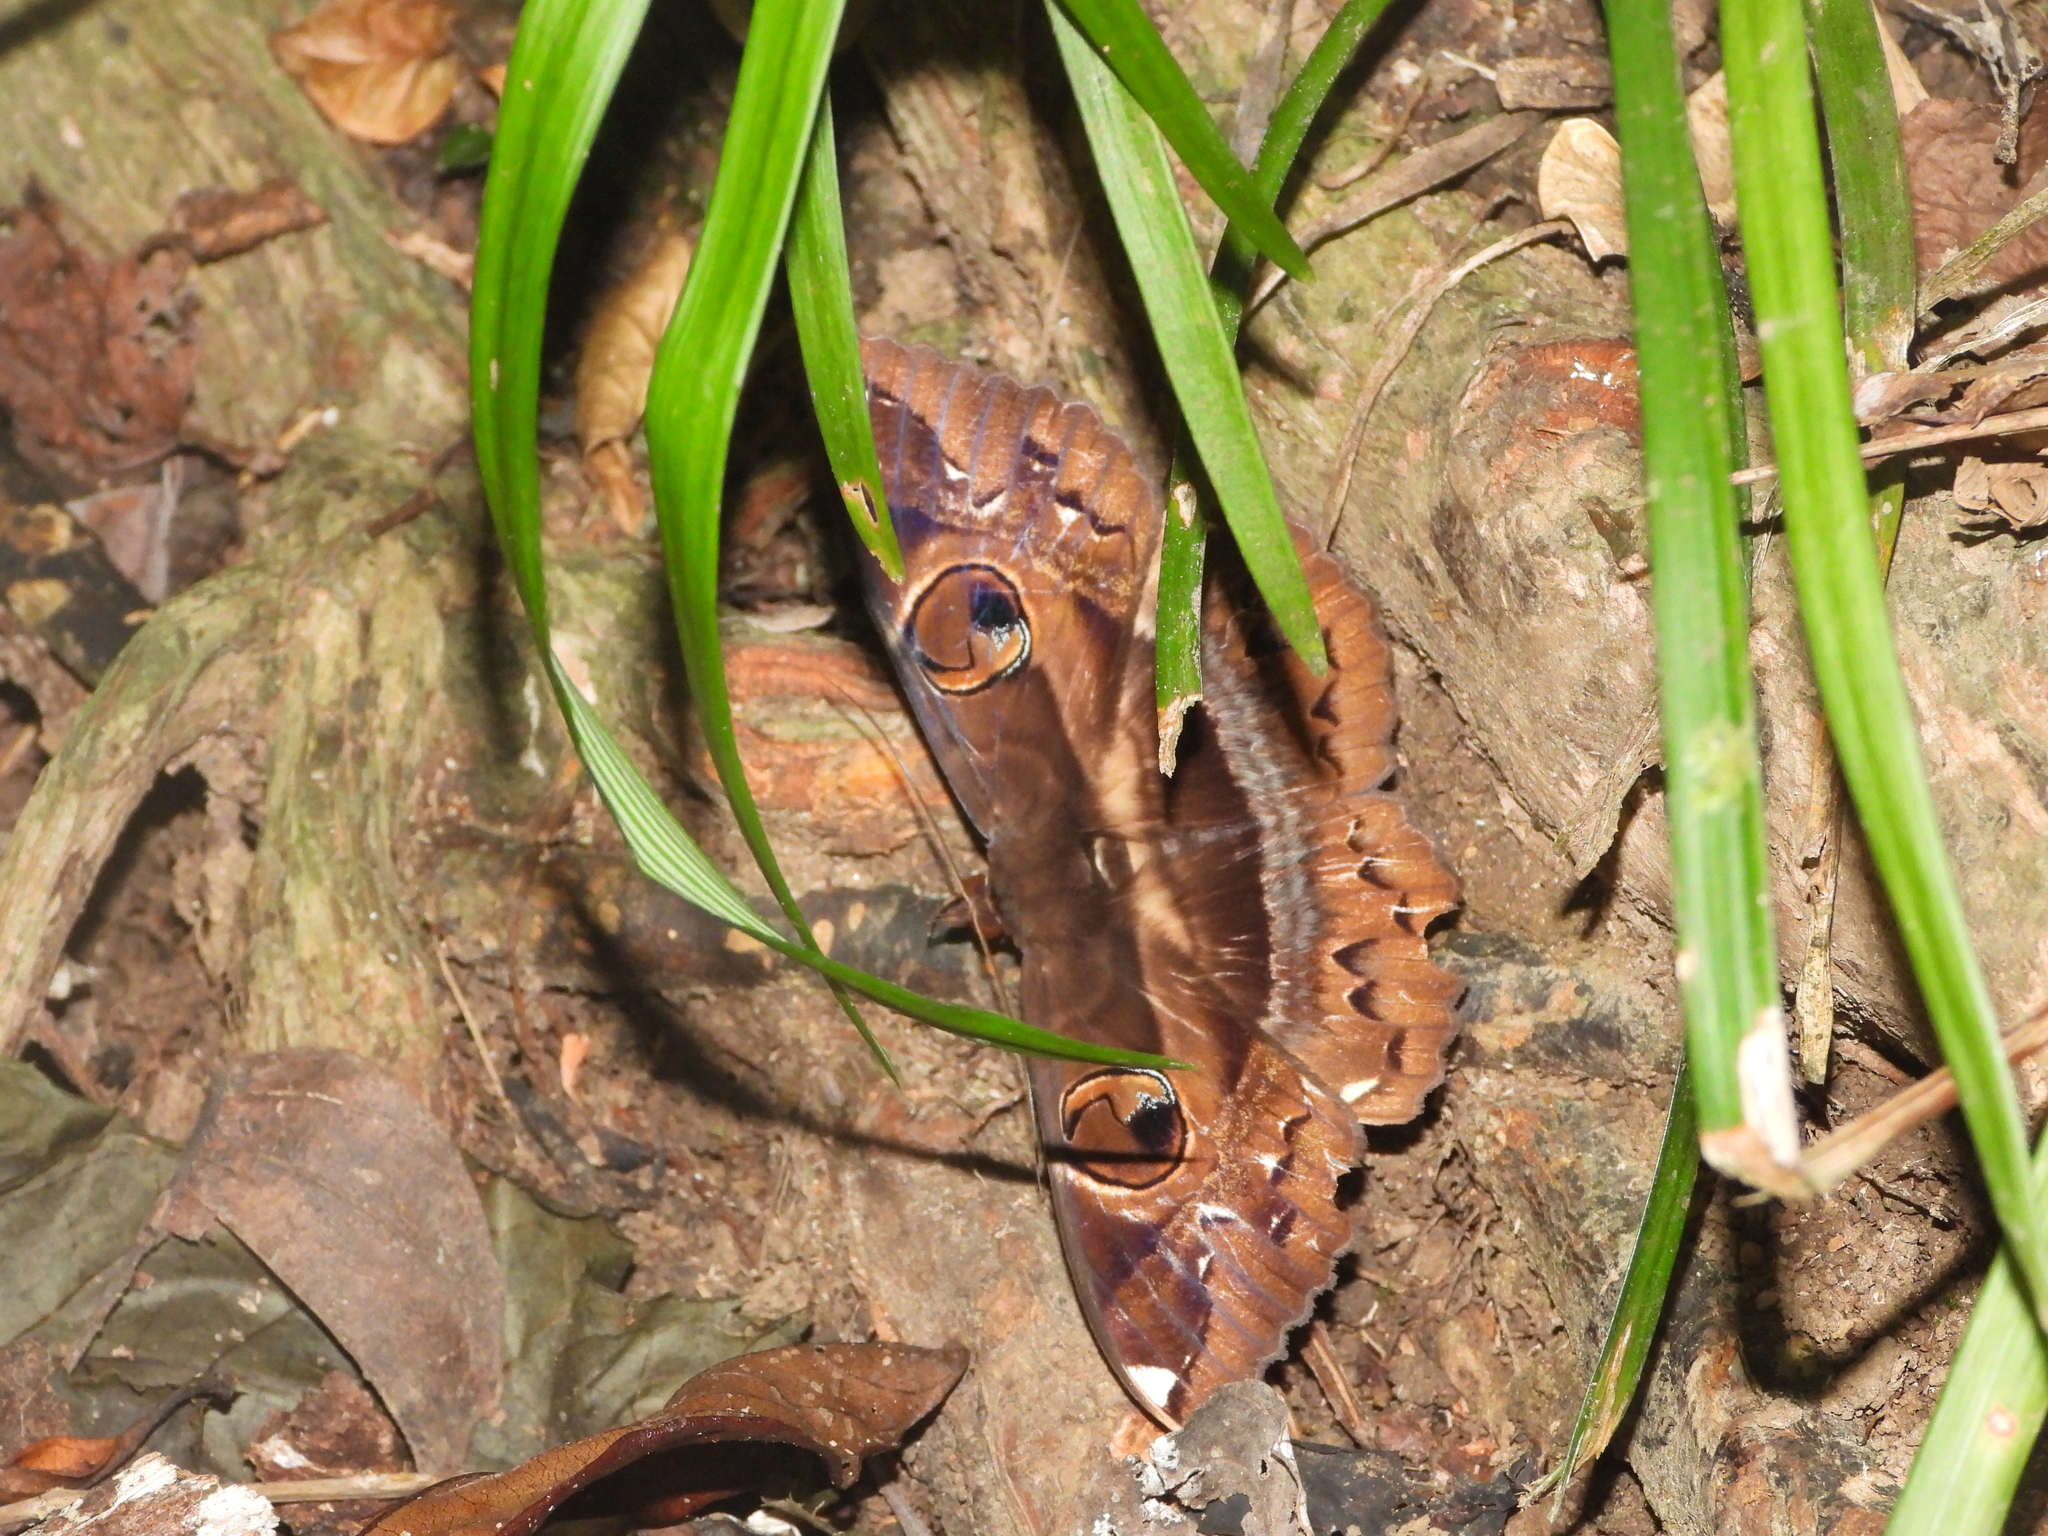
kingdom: Animalia
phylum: Arthropoda
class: Insecta
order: Lepidoptera
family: Erebidae
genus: Erebus
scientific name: Erebus crepuscularis
